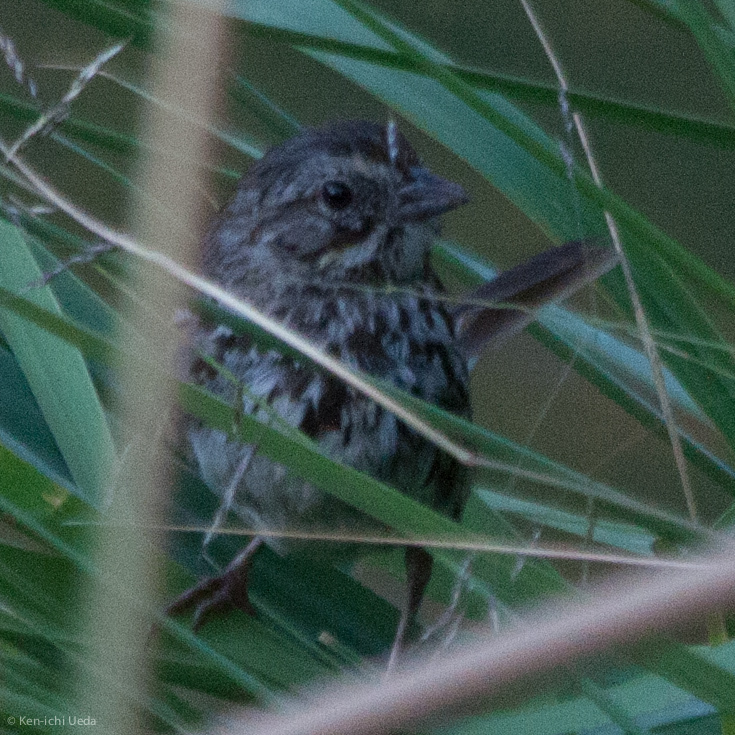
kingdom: Animalia
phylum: Chordata
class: Aves
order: Passeriformes
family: Passerellidae
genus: Melospiza
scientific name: Melospiza melodia
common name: Song sparrow
